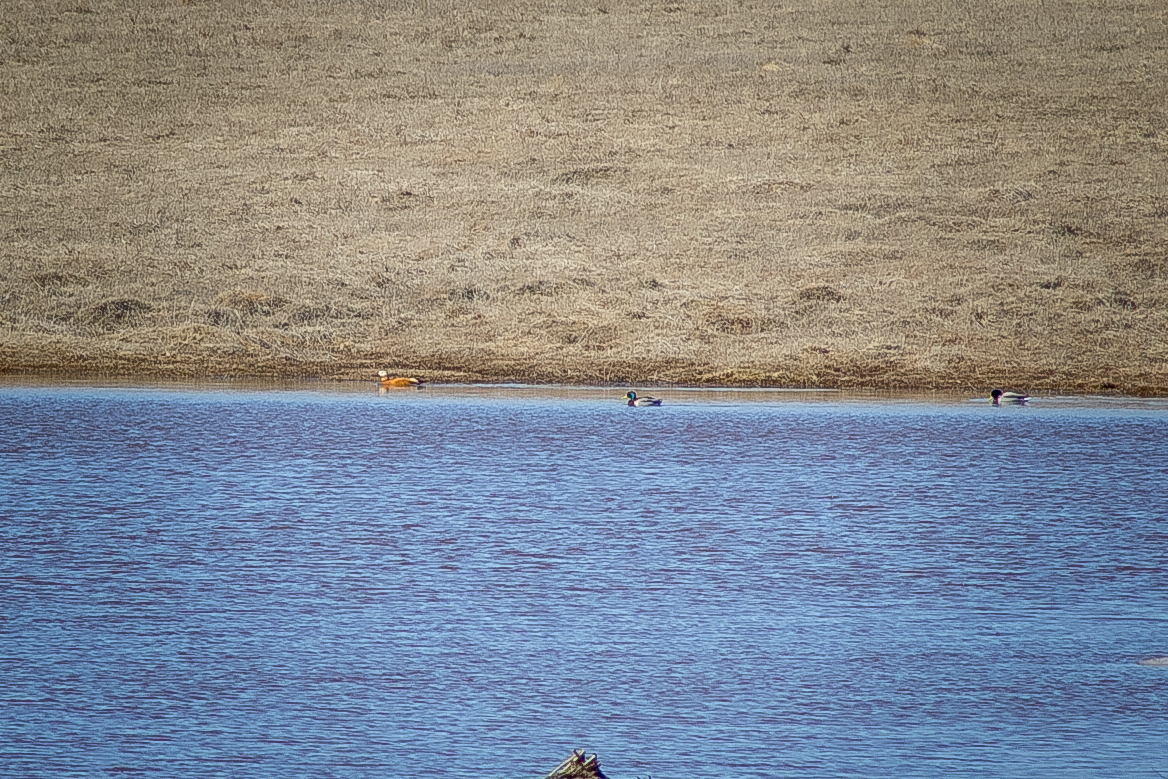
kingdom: Animalia
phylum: Chordata
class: Aves
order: Anseriformes
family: Anatidae
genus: Tadorna
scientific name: Tadorna ferruginea
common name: Ruddy shelduck
